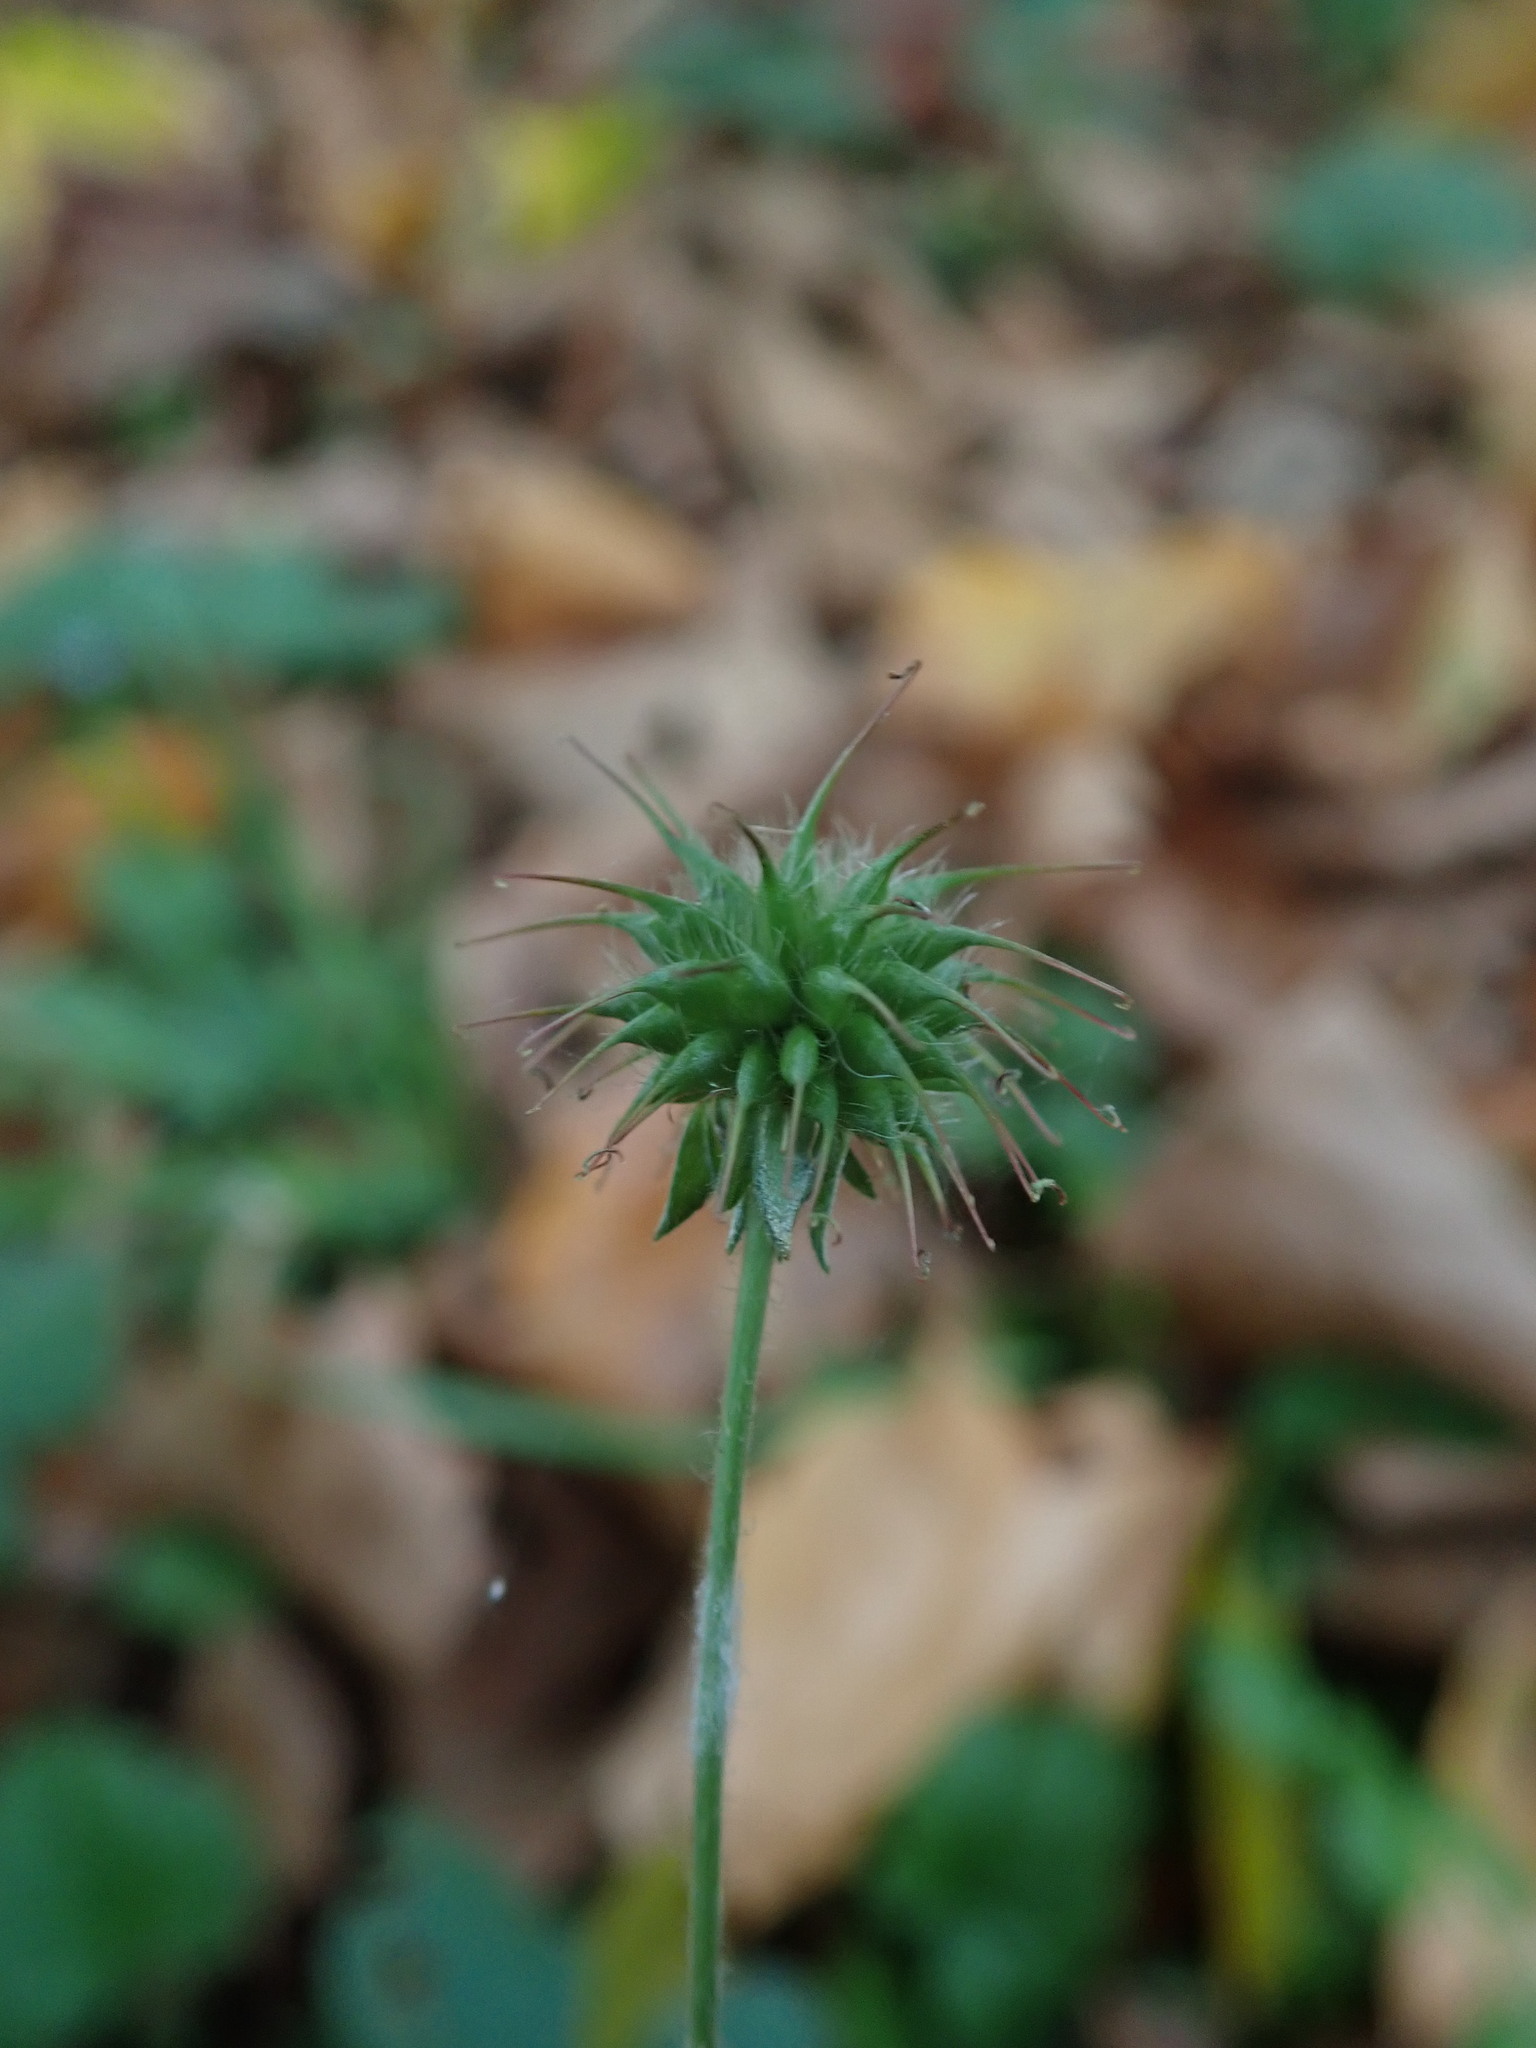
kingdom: Plantae
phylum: Tracheophyta
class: Magnoliopsida
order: Rosales
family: Rosaceae
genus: Geum
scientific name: Geum urbanum
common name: Wood avens
